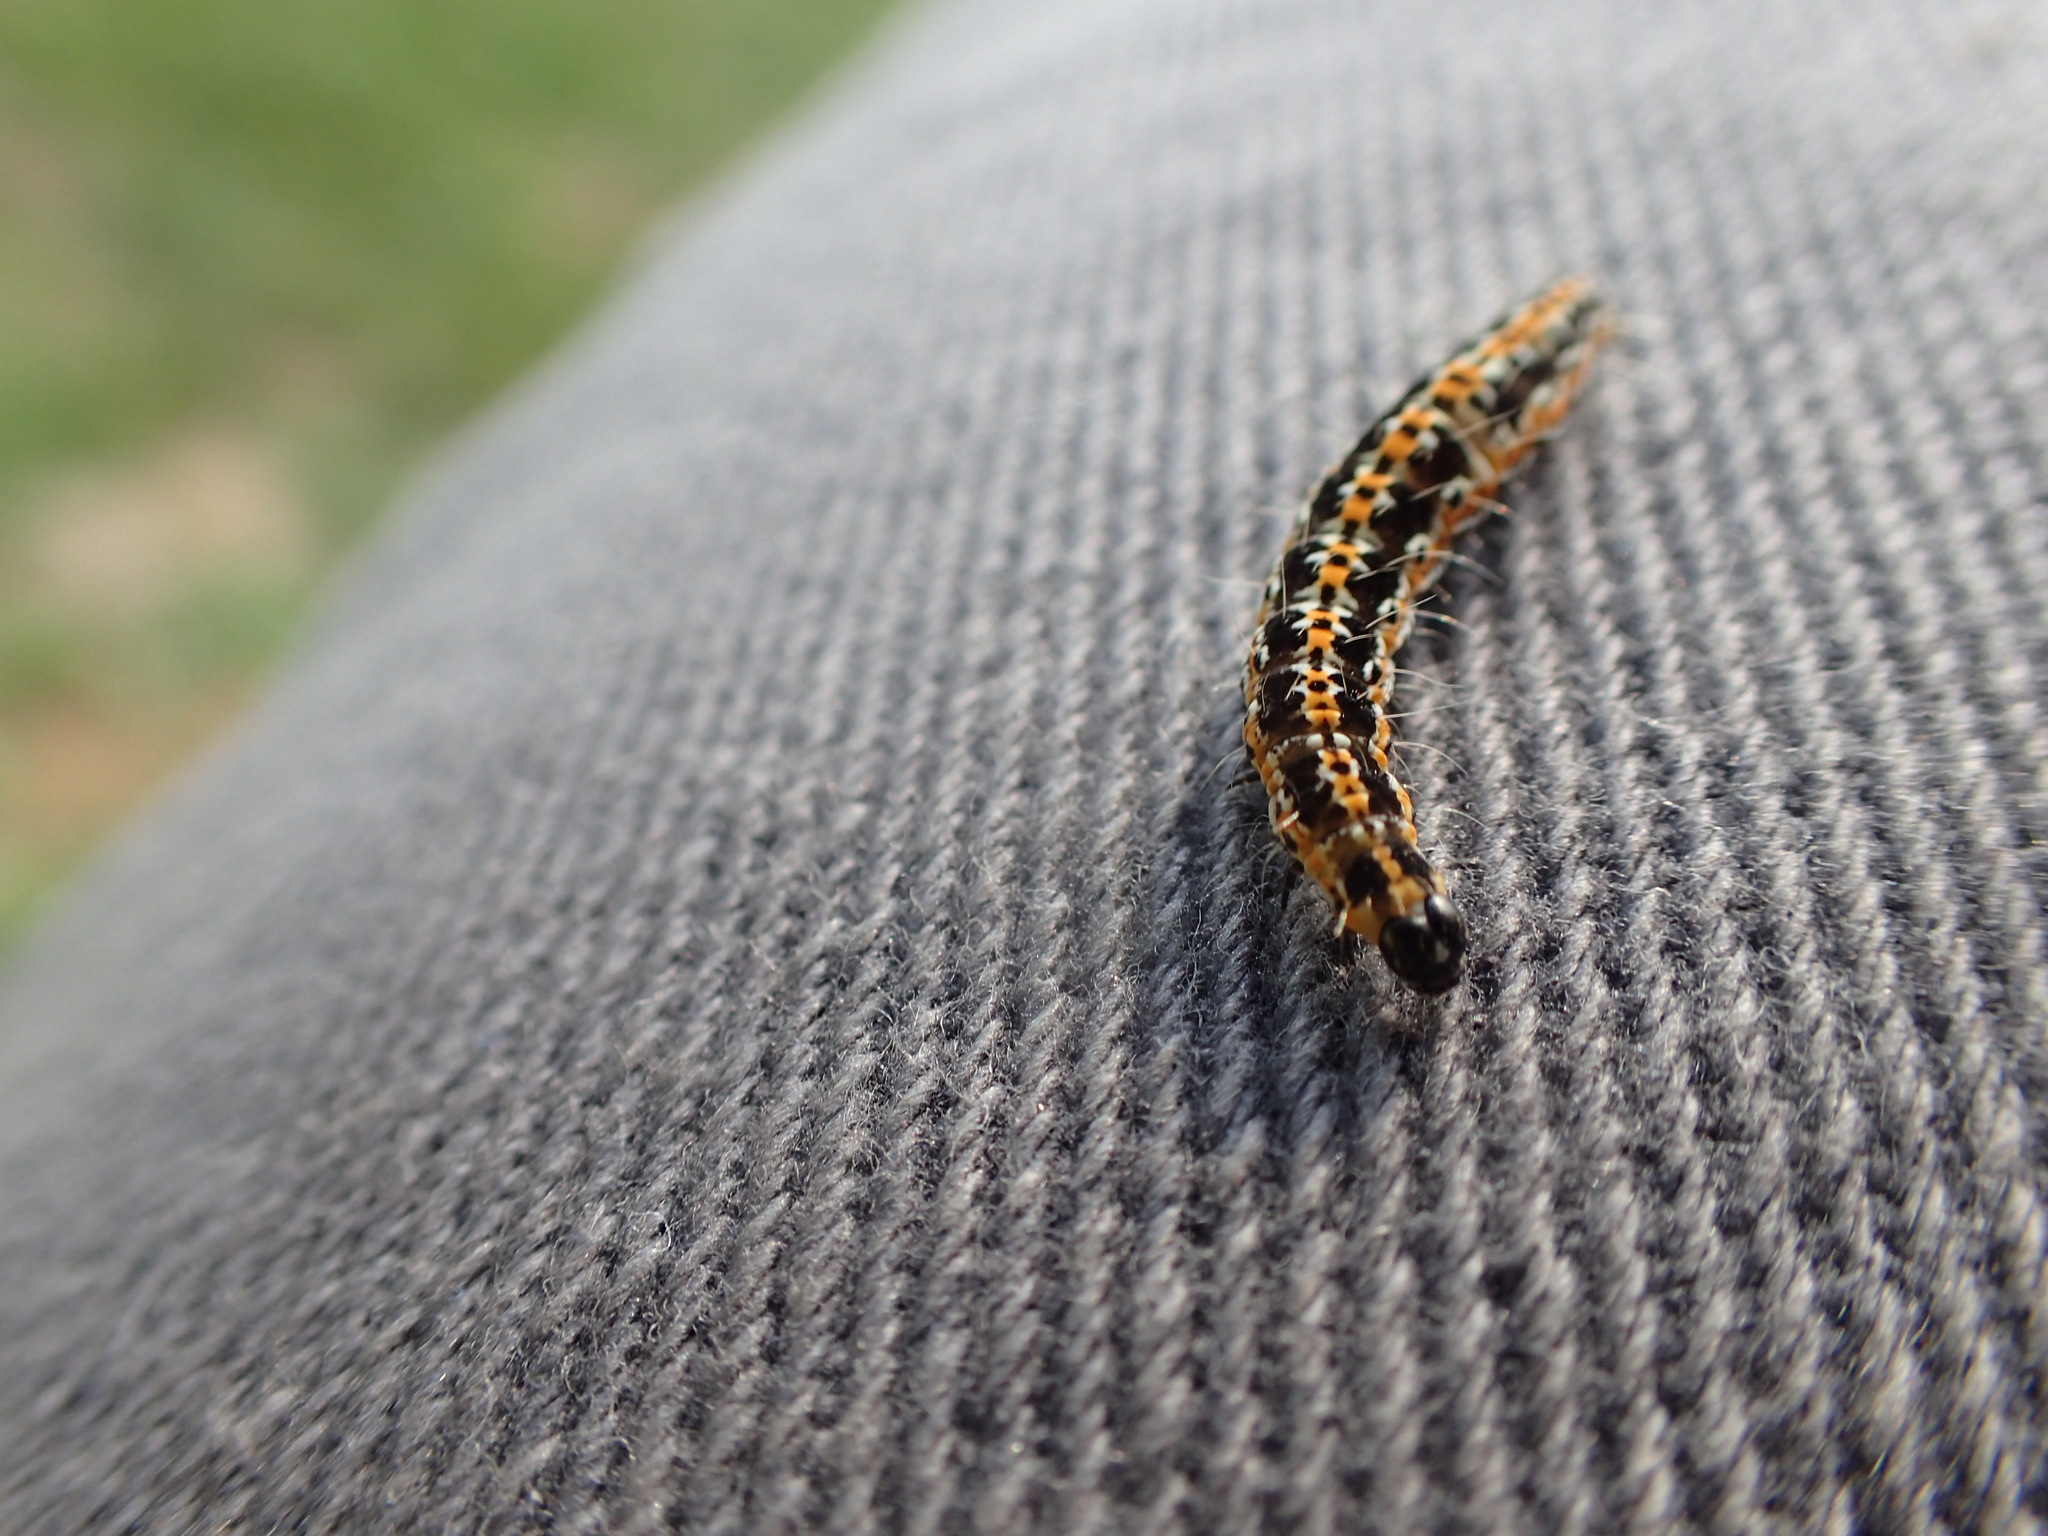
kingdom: Animalia
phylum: Arthropoda
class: Insecta
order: Lepidoptera
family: Ethmiidae
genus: Ethmia
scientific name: Ethmia bipunctella
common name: Bordered ermel
